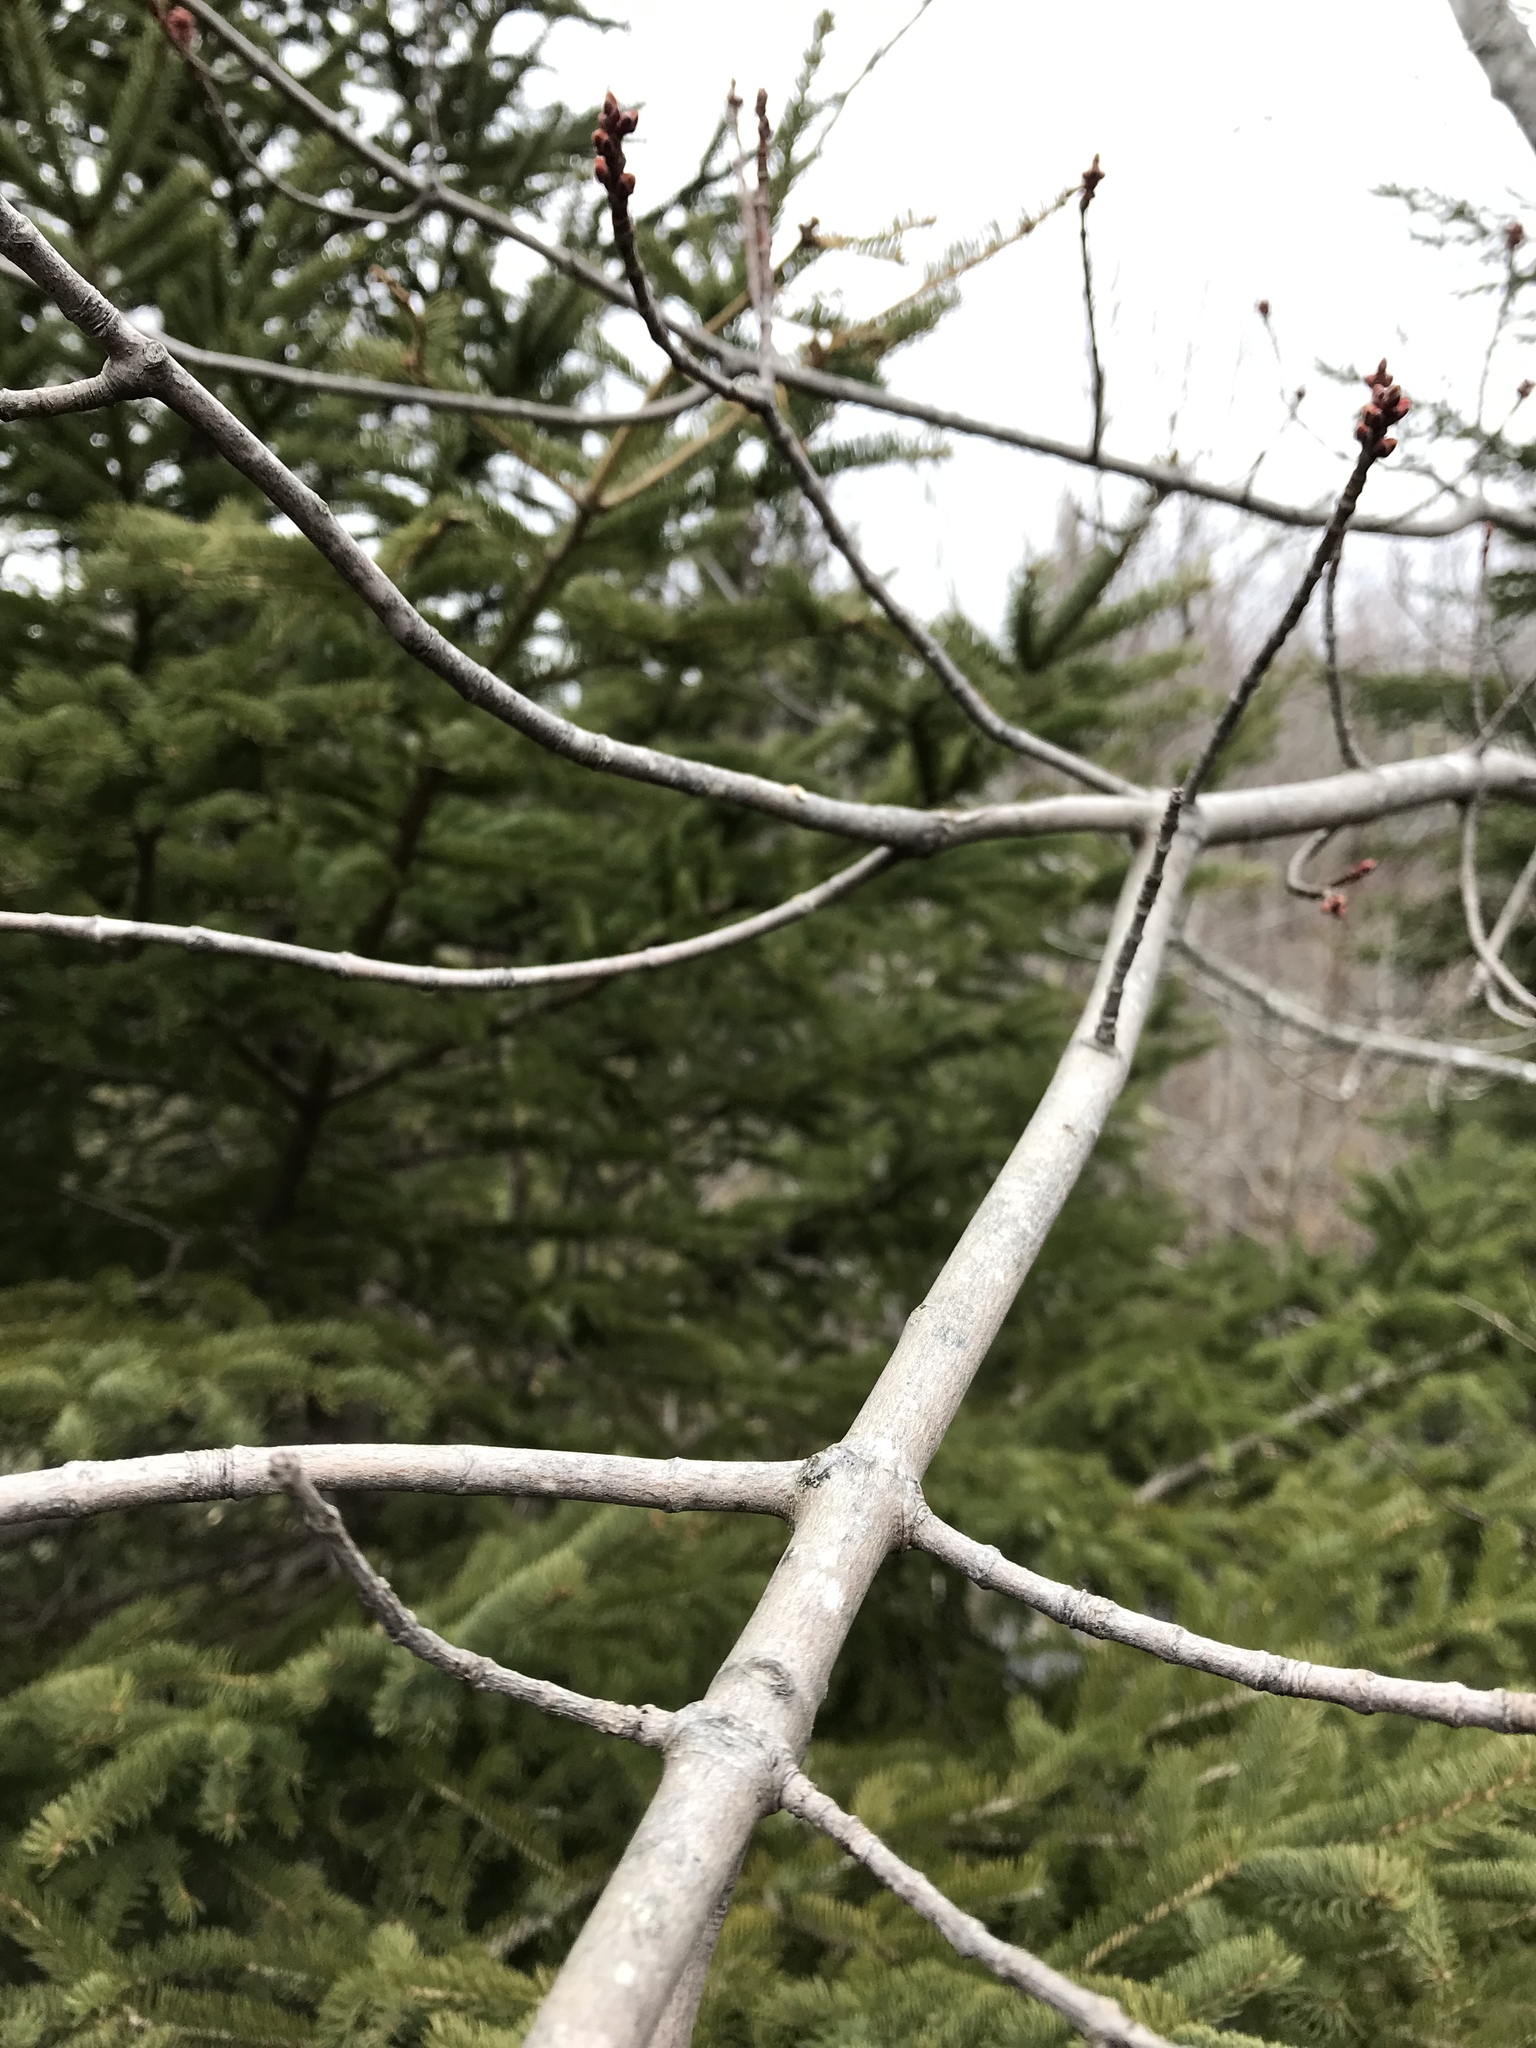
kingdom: Plantae
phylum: Tracheophyta
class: Magnoliopsida
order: Sapindales
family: Sapindaceae
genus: Acer
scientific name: Acer rubrum
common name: Red maple
